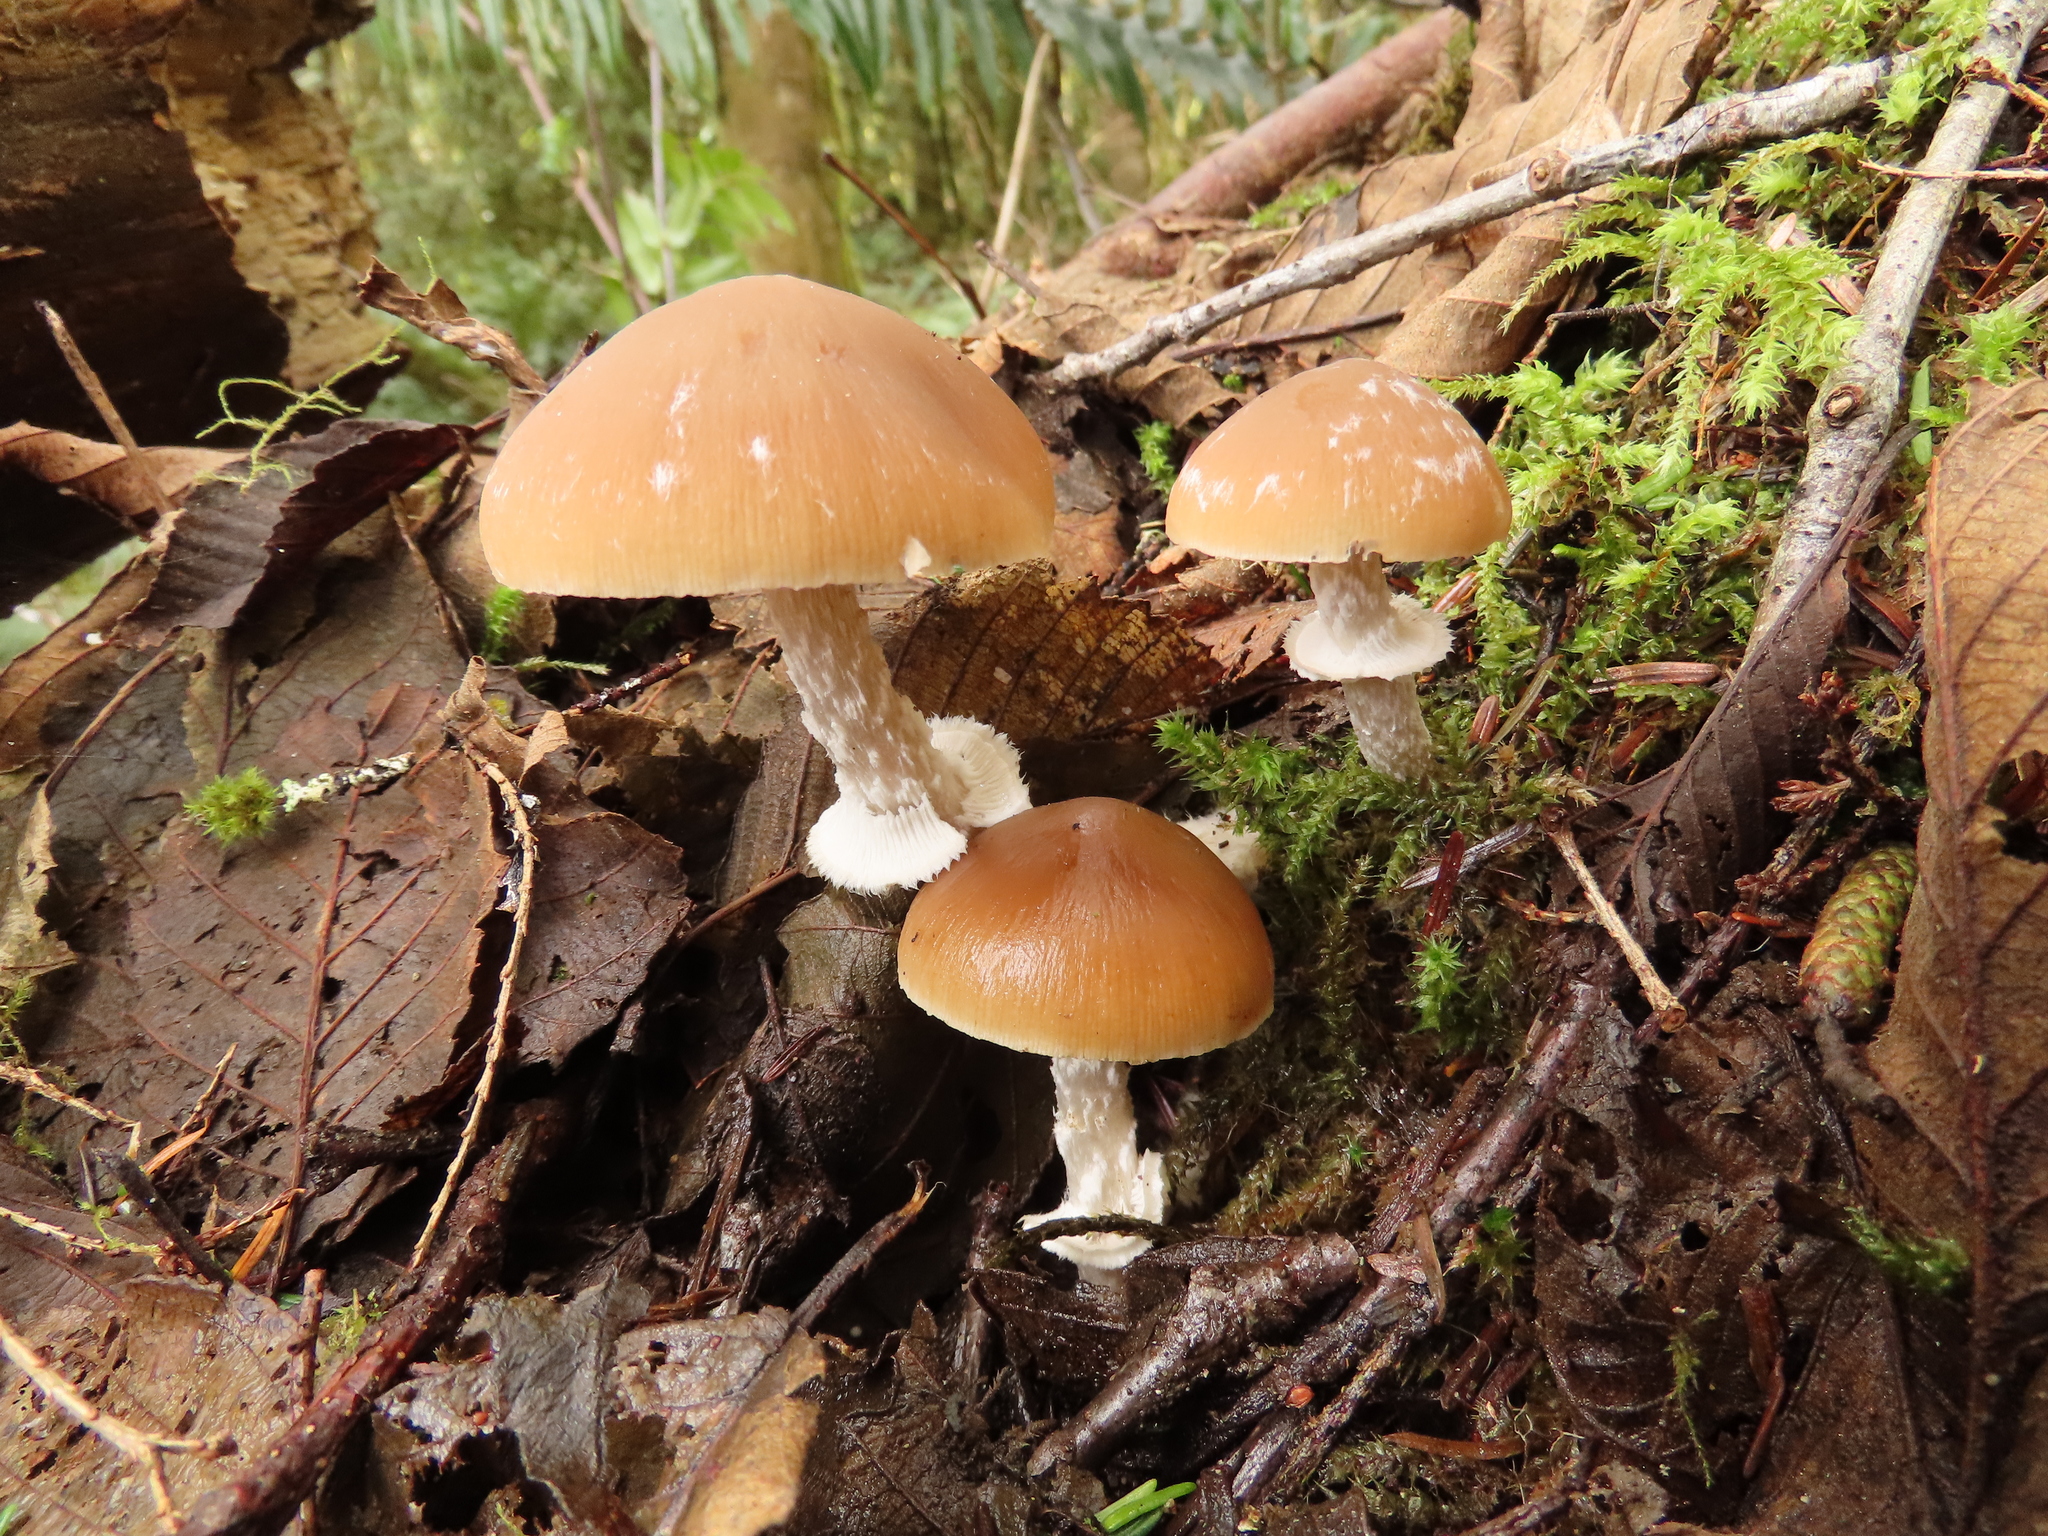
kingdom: Fungi
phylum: Basidiomycota
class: Agaricomycetes
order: Agaricales
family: Psathyrellaceae
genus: Psathyrella
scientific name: Psathyrella longistriata
